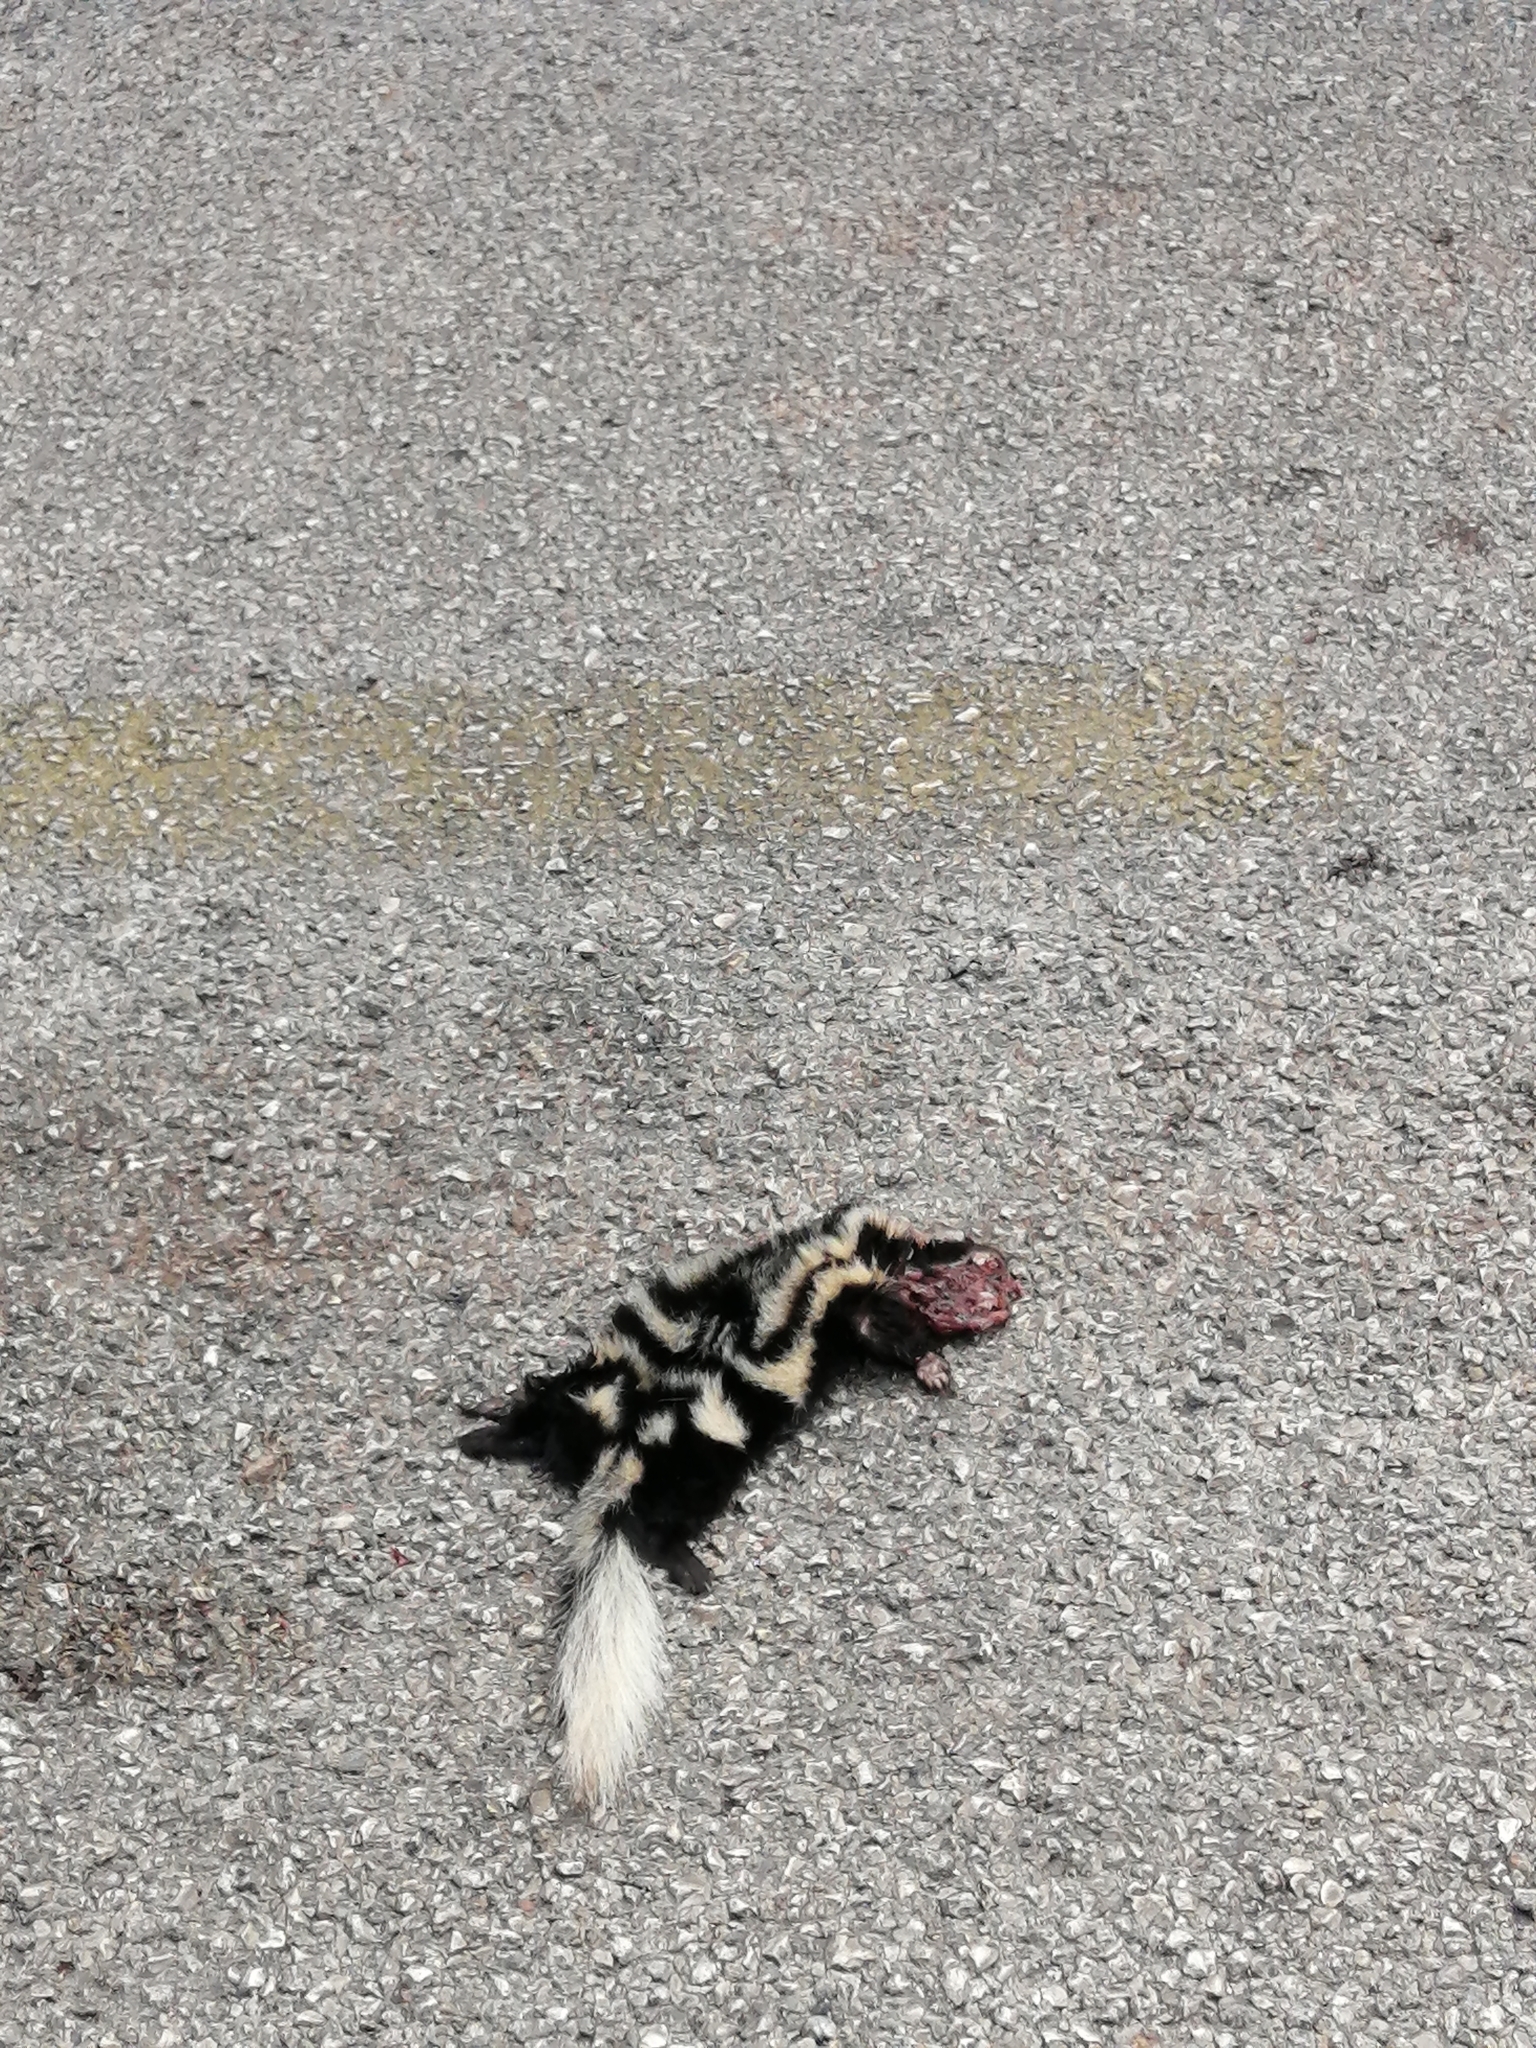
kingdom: Animalia
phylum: Chordata
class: Mammalia
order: Carnivora
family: Mephitidae
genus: Spilogale
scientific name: Spilogale angustifrons
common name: Southern spotted skunk
